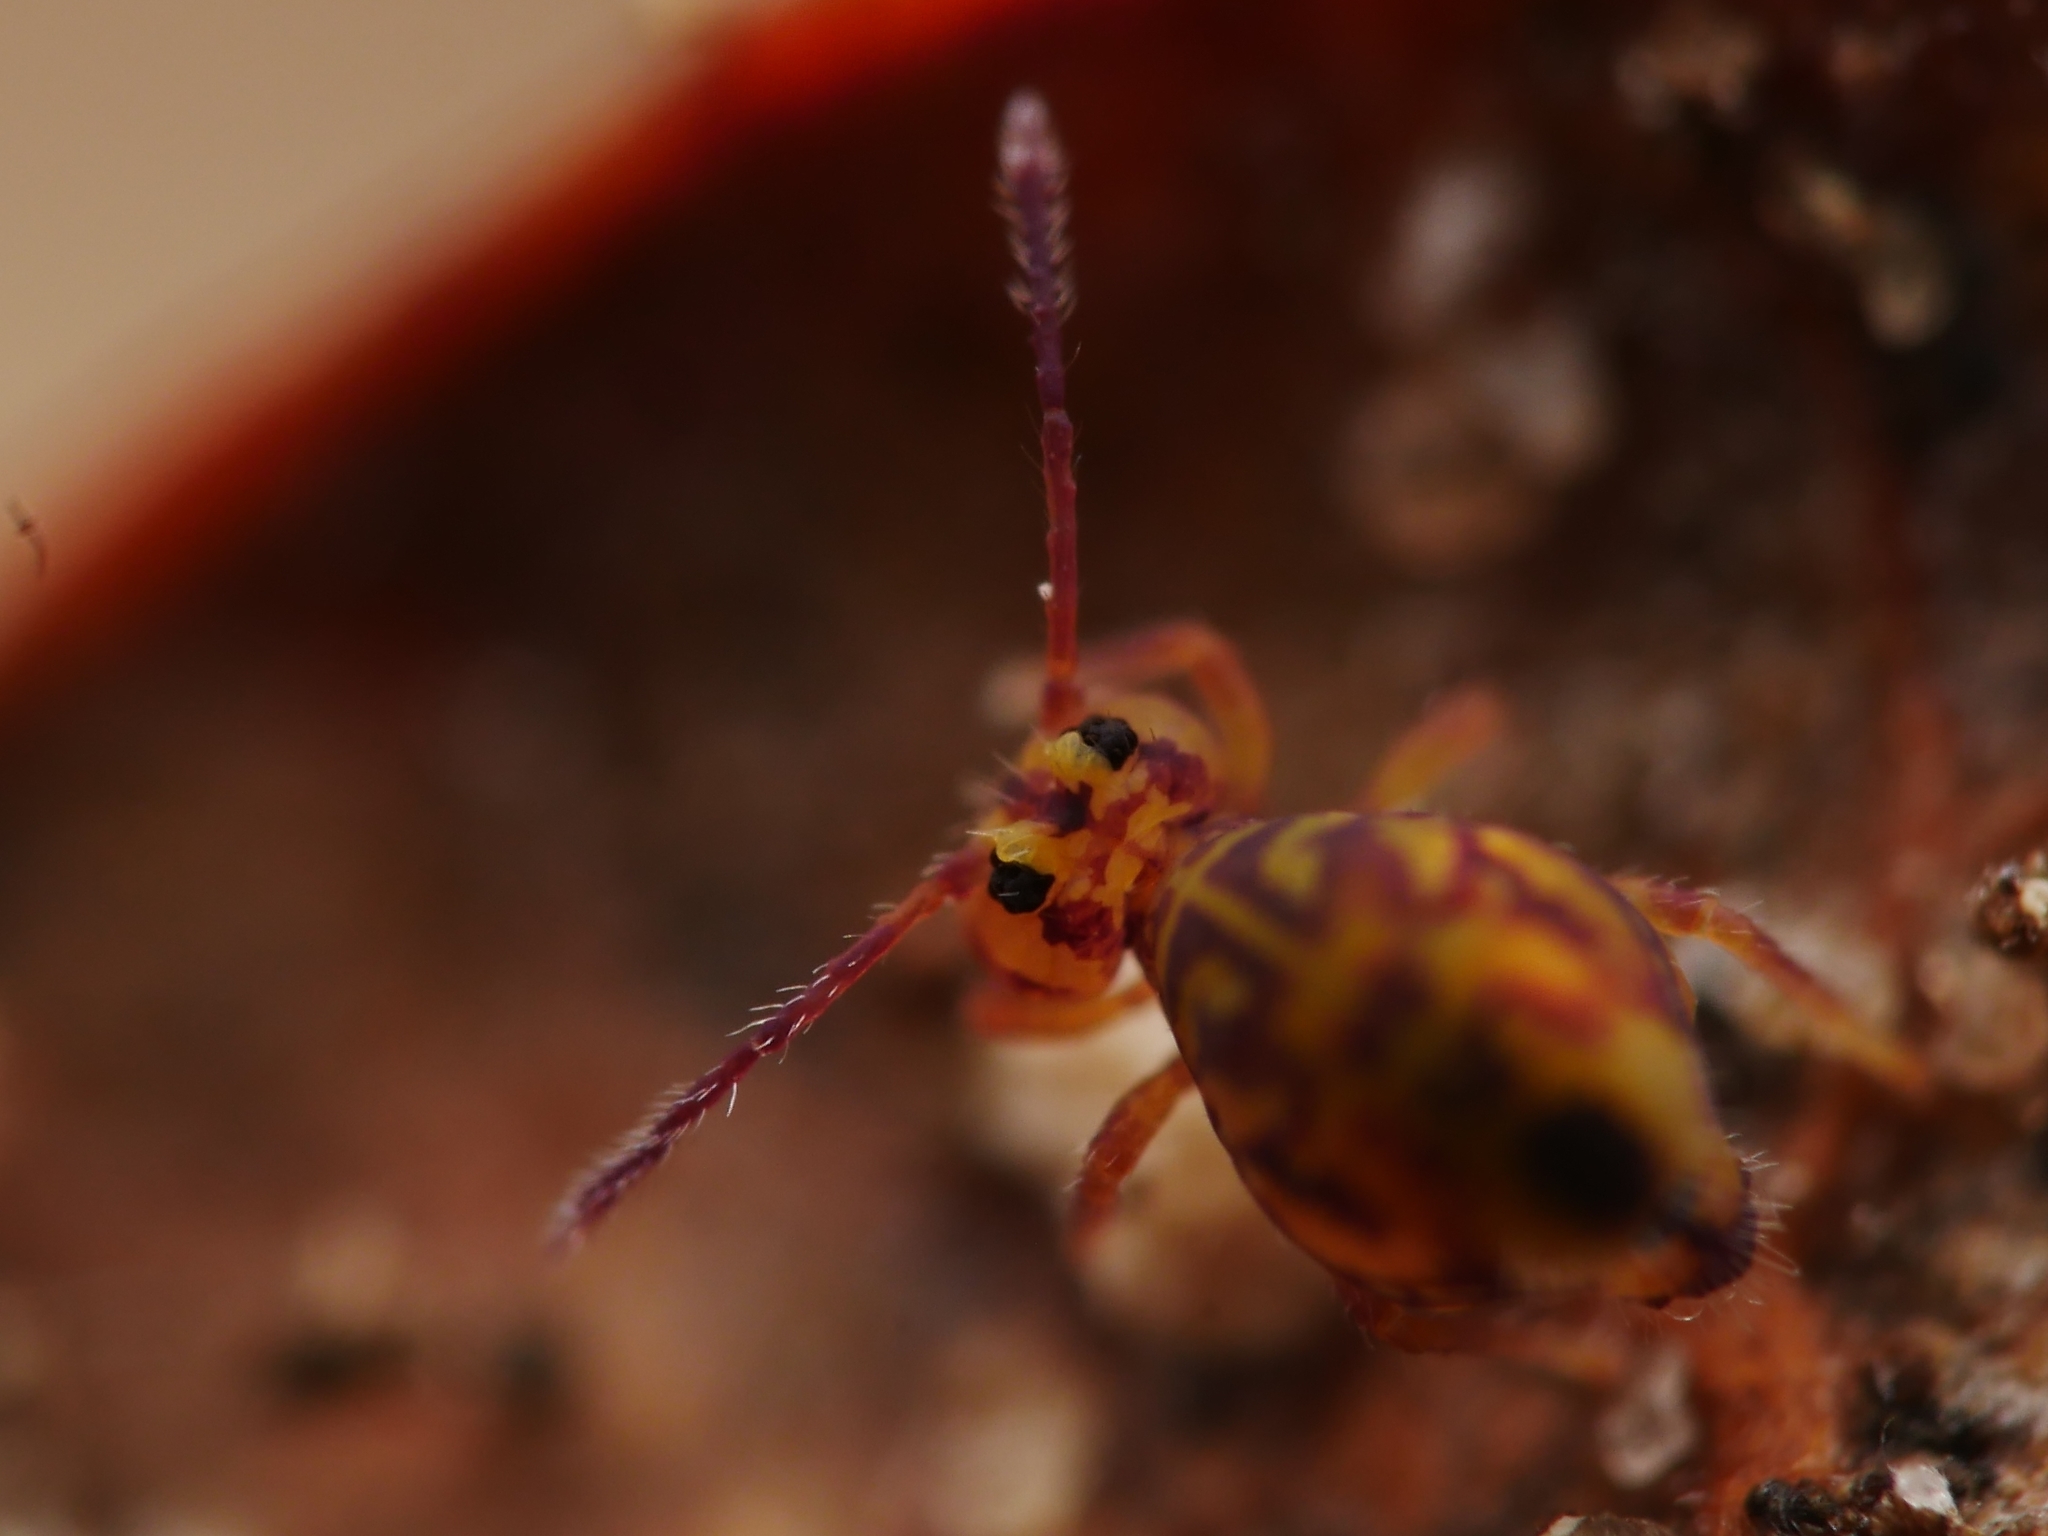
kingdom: Animalia
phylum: Arthropoda
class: Collembola
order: Symphypleona
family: Dicyrtomidae
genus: Dicyrtomina
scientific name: Dicyrtomina ornata
